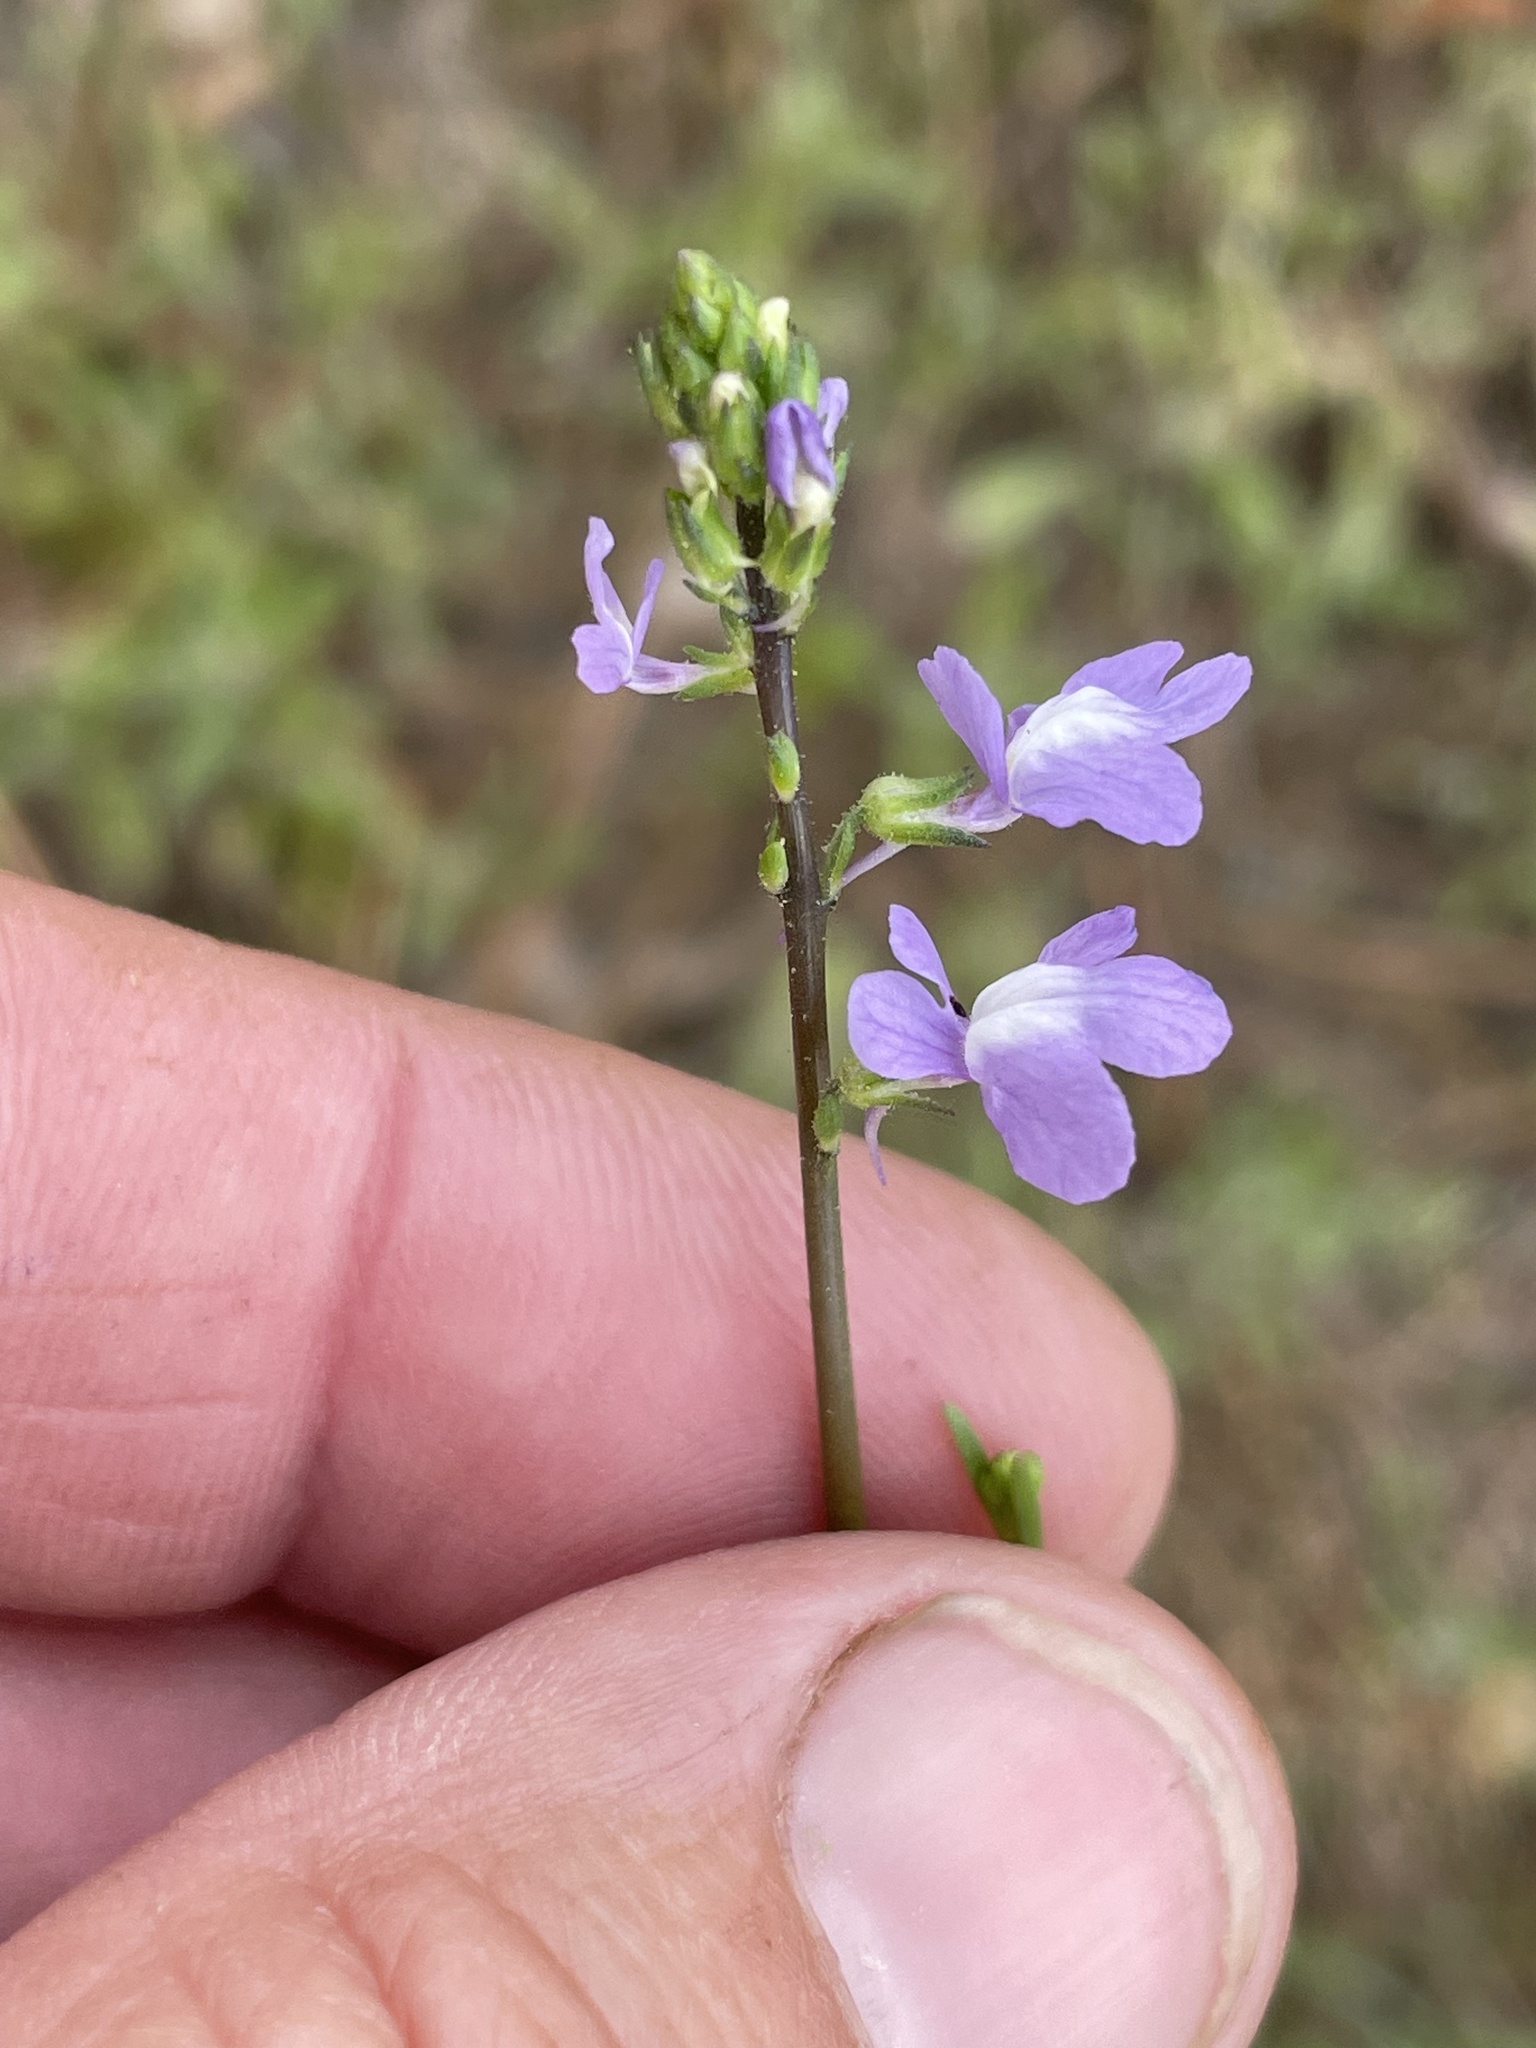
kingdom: Plantae
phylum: Tracheophyta
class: Magnoliopsida
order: Lamiales
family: Plantaginaceae
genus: Nuttallanthus
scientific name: Nuttallanthus canadensis
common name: Blue toadflax
